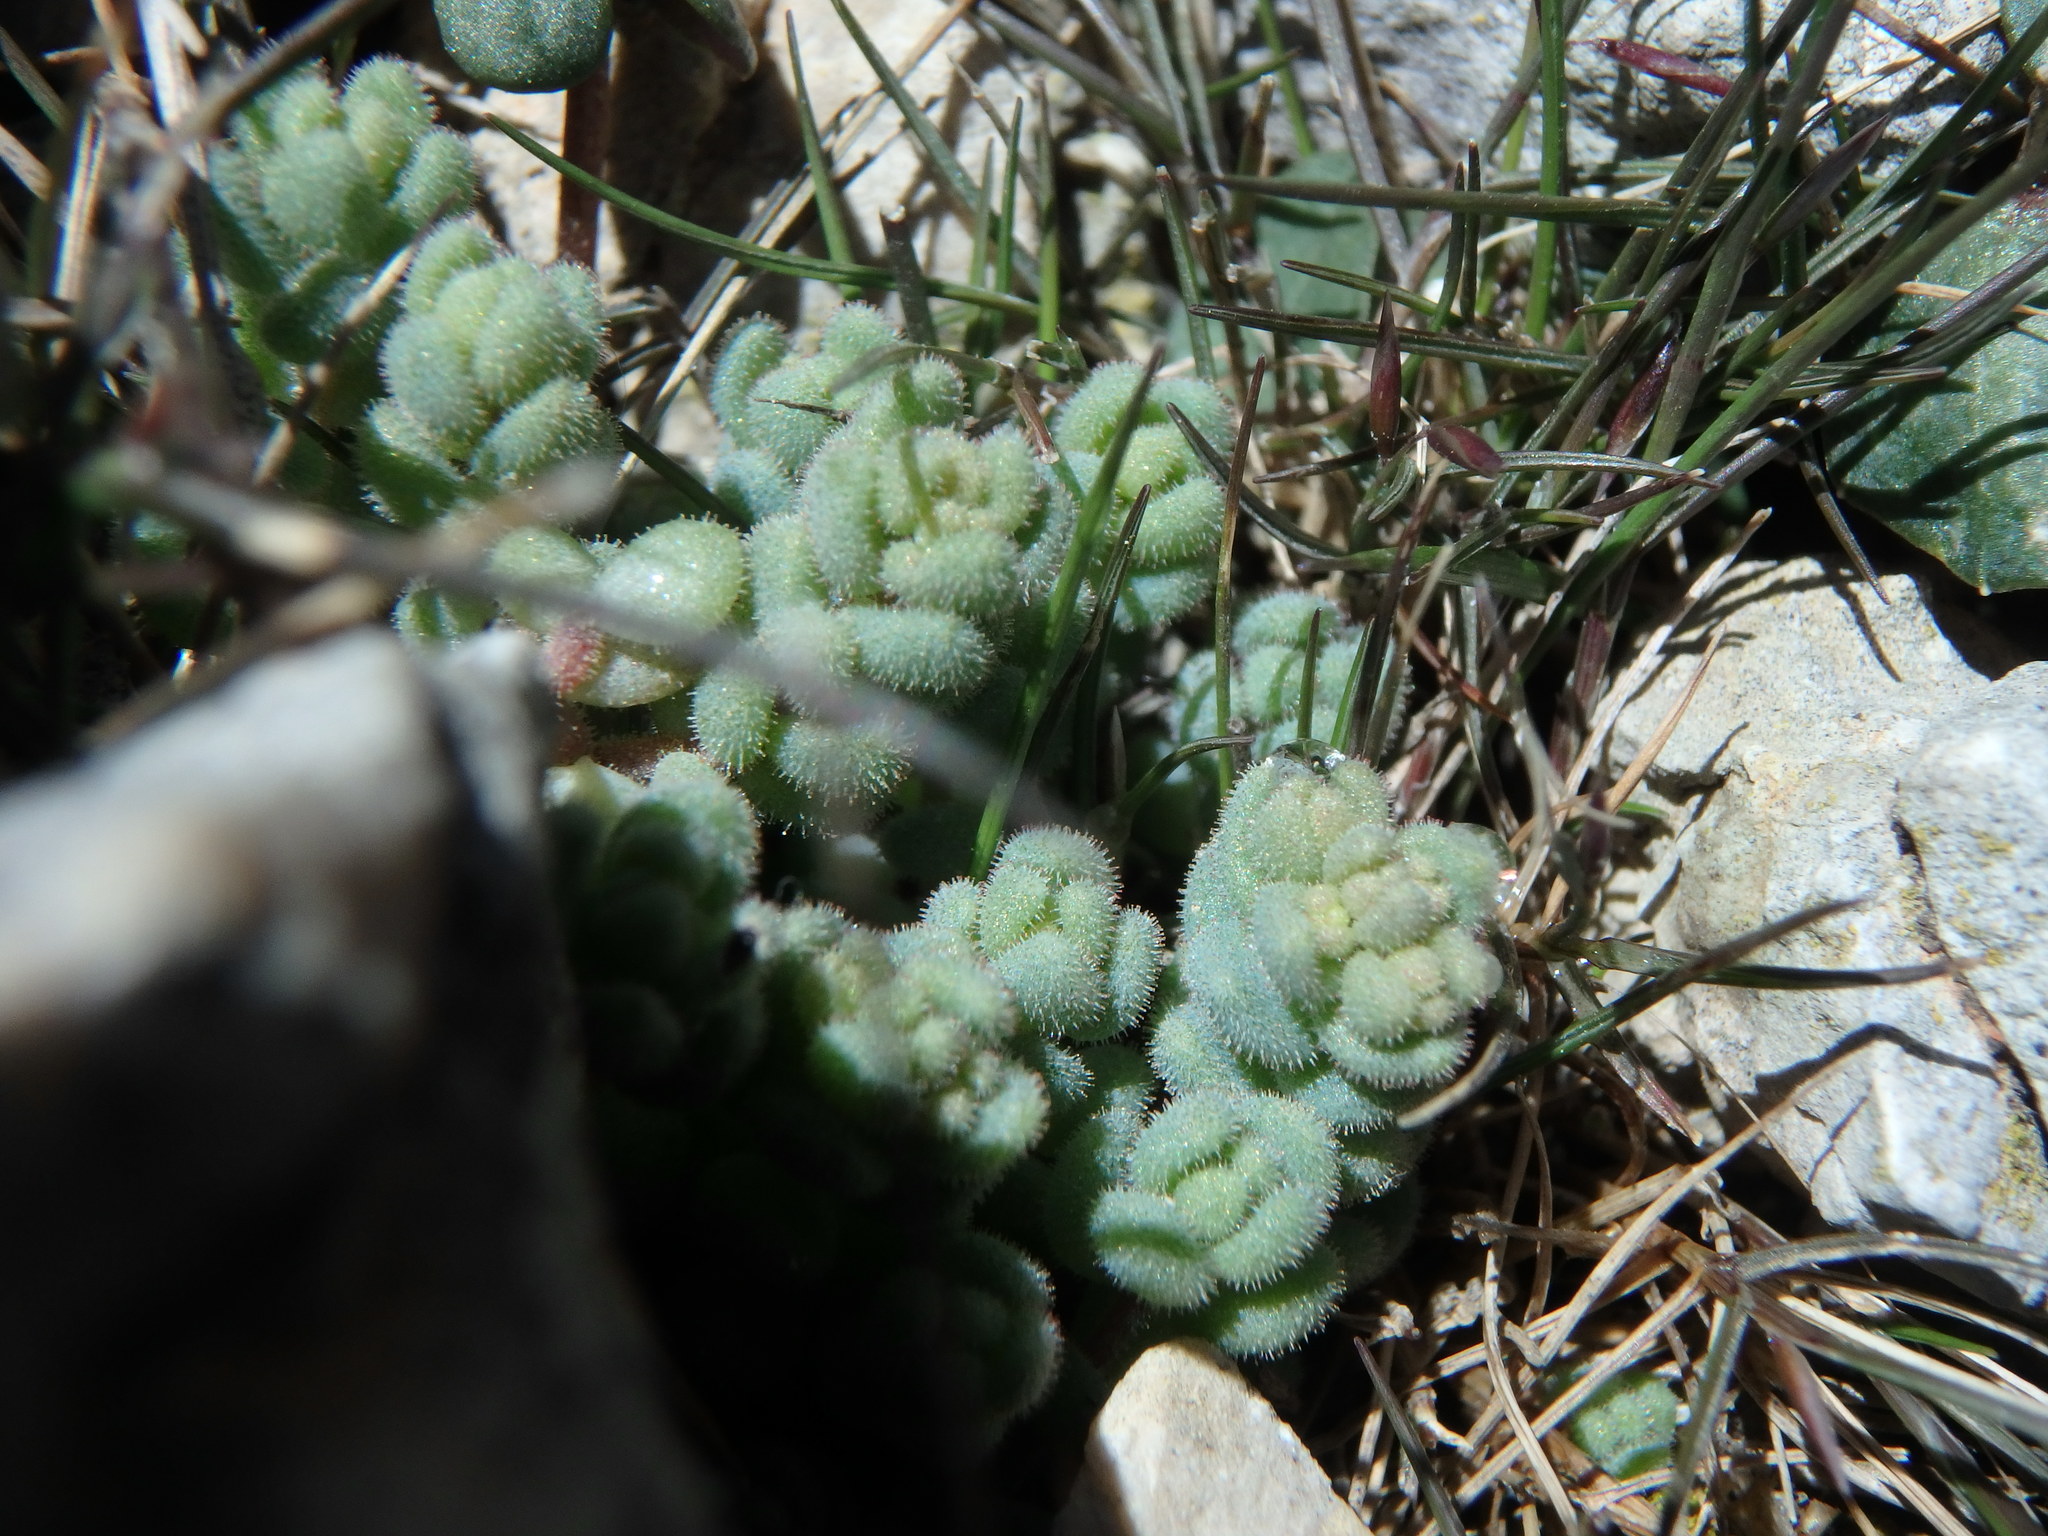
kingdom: Plantae
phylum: Tracheophyta
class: Magnoliopsida
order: Saxifragales
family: Crassulaceae
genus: Sedum
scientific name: Sedum dasyphyllum
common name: Thick-leaf stonecrop
